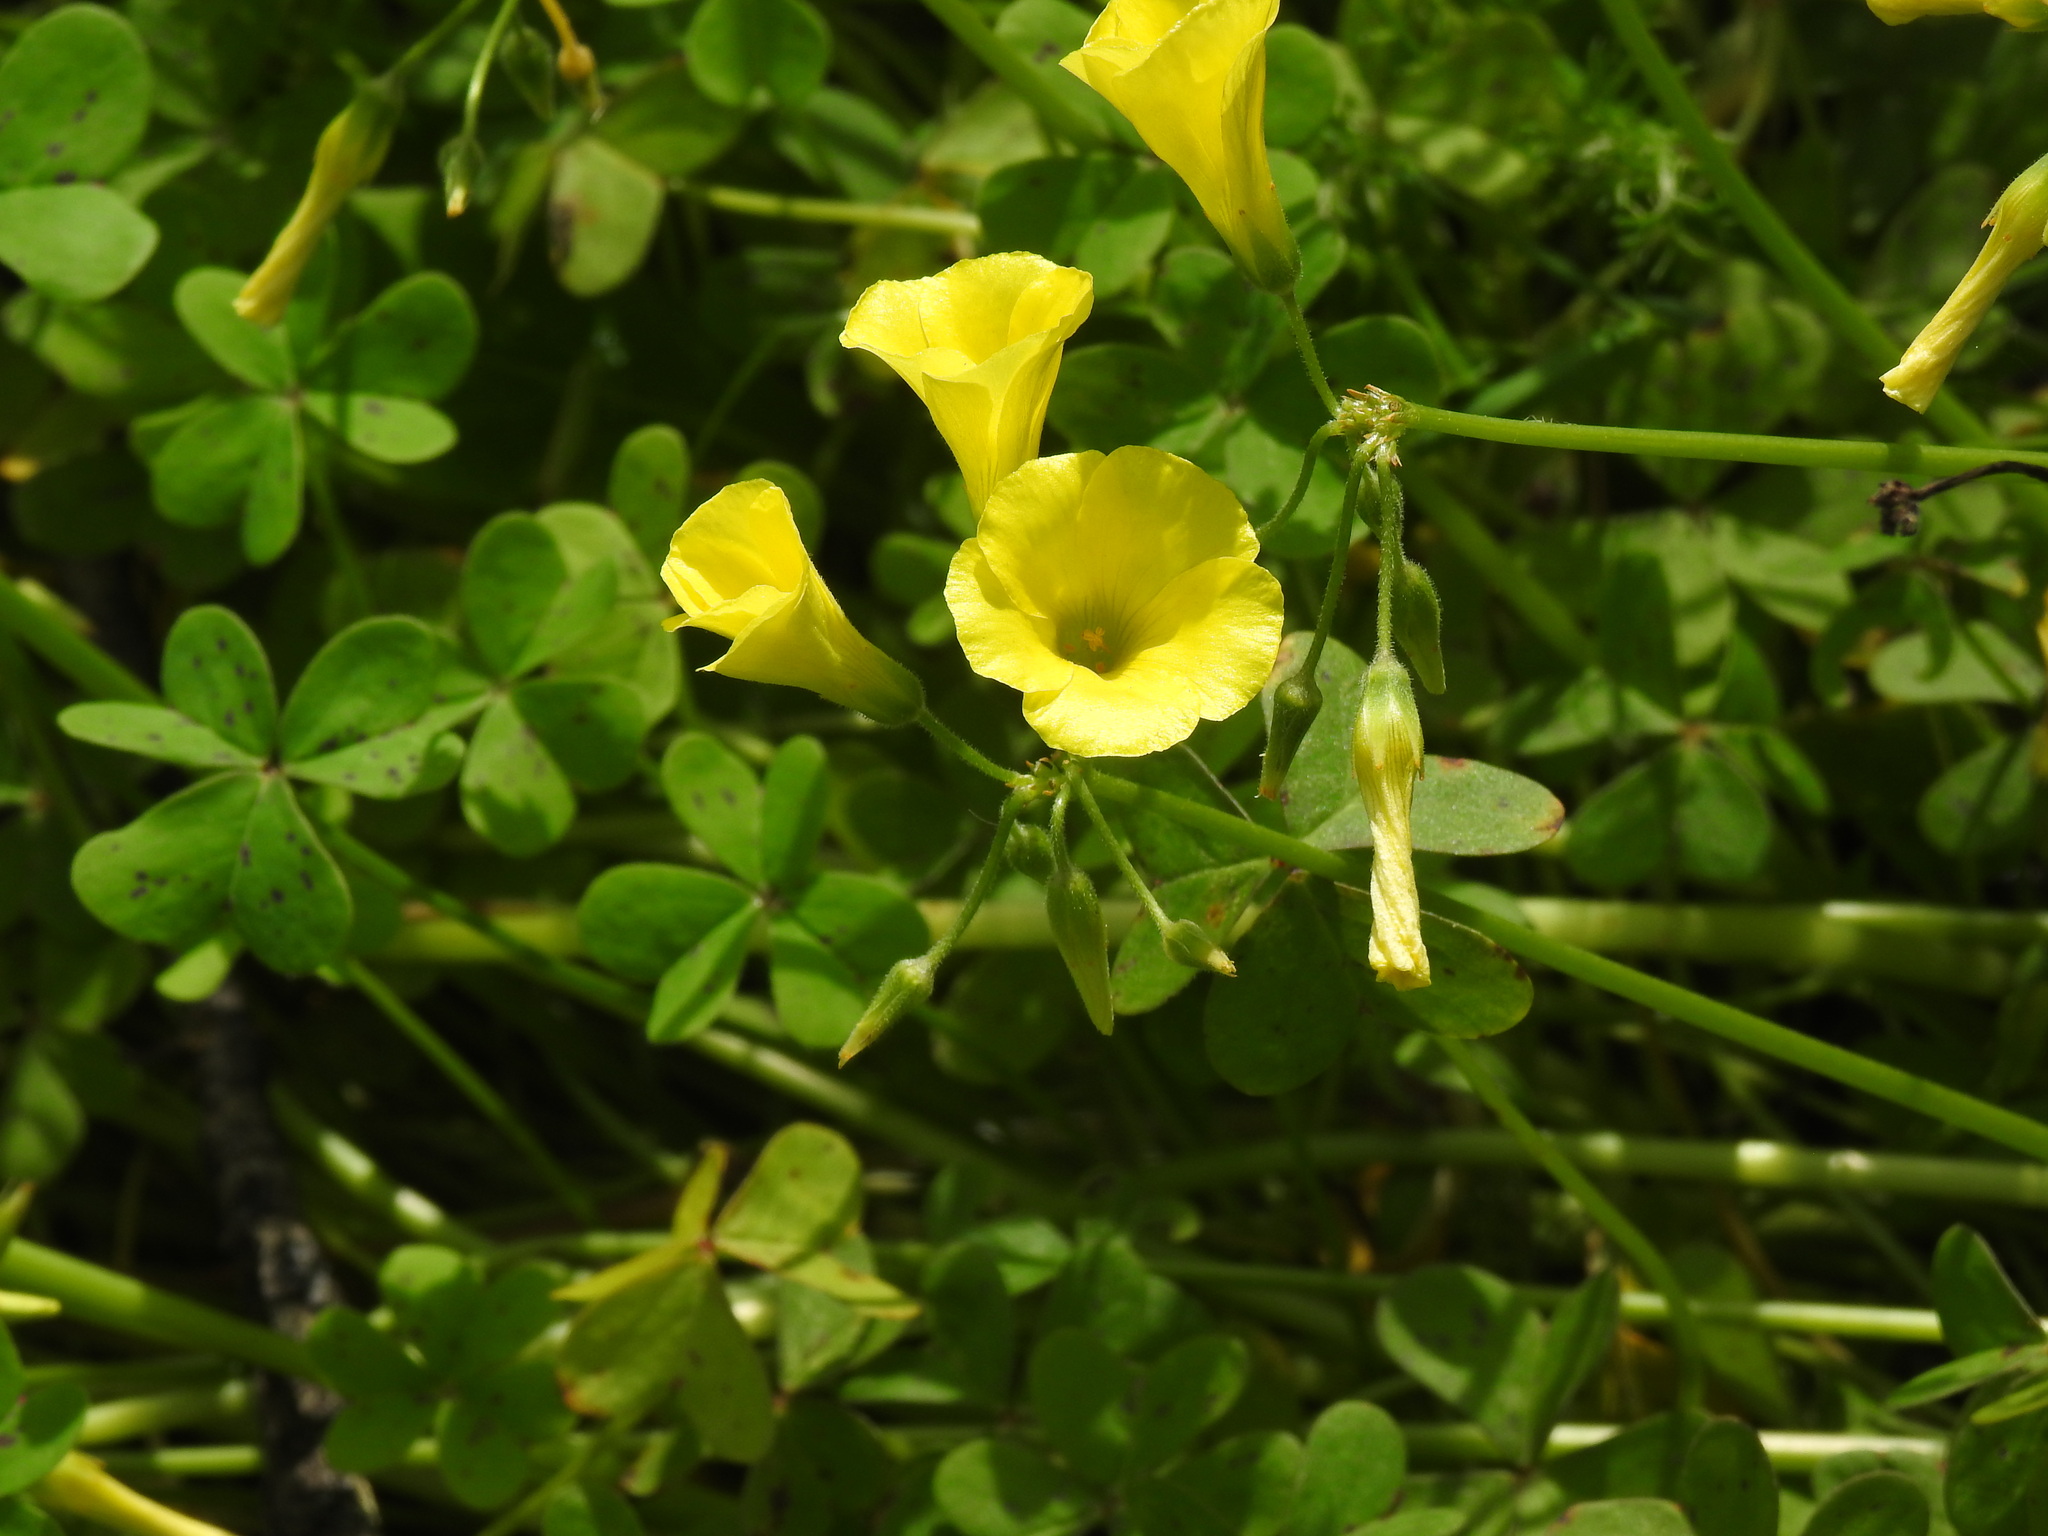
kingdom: Plantae
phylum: Tracheophyta
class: Magnoliopsida
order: Oxalidales
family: Oxalidaceae
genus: Oxalis
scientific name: Oxalis pes-caprae
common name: Bermuda-buttercup
